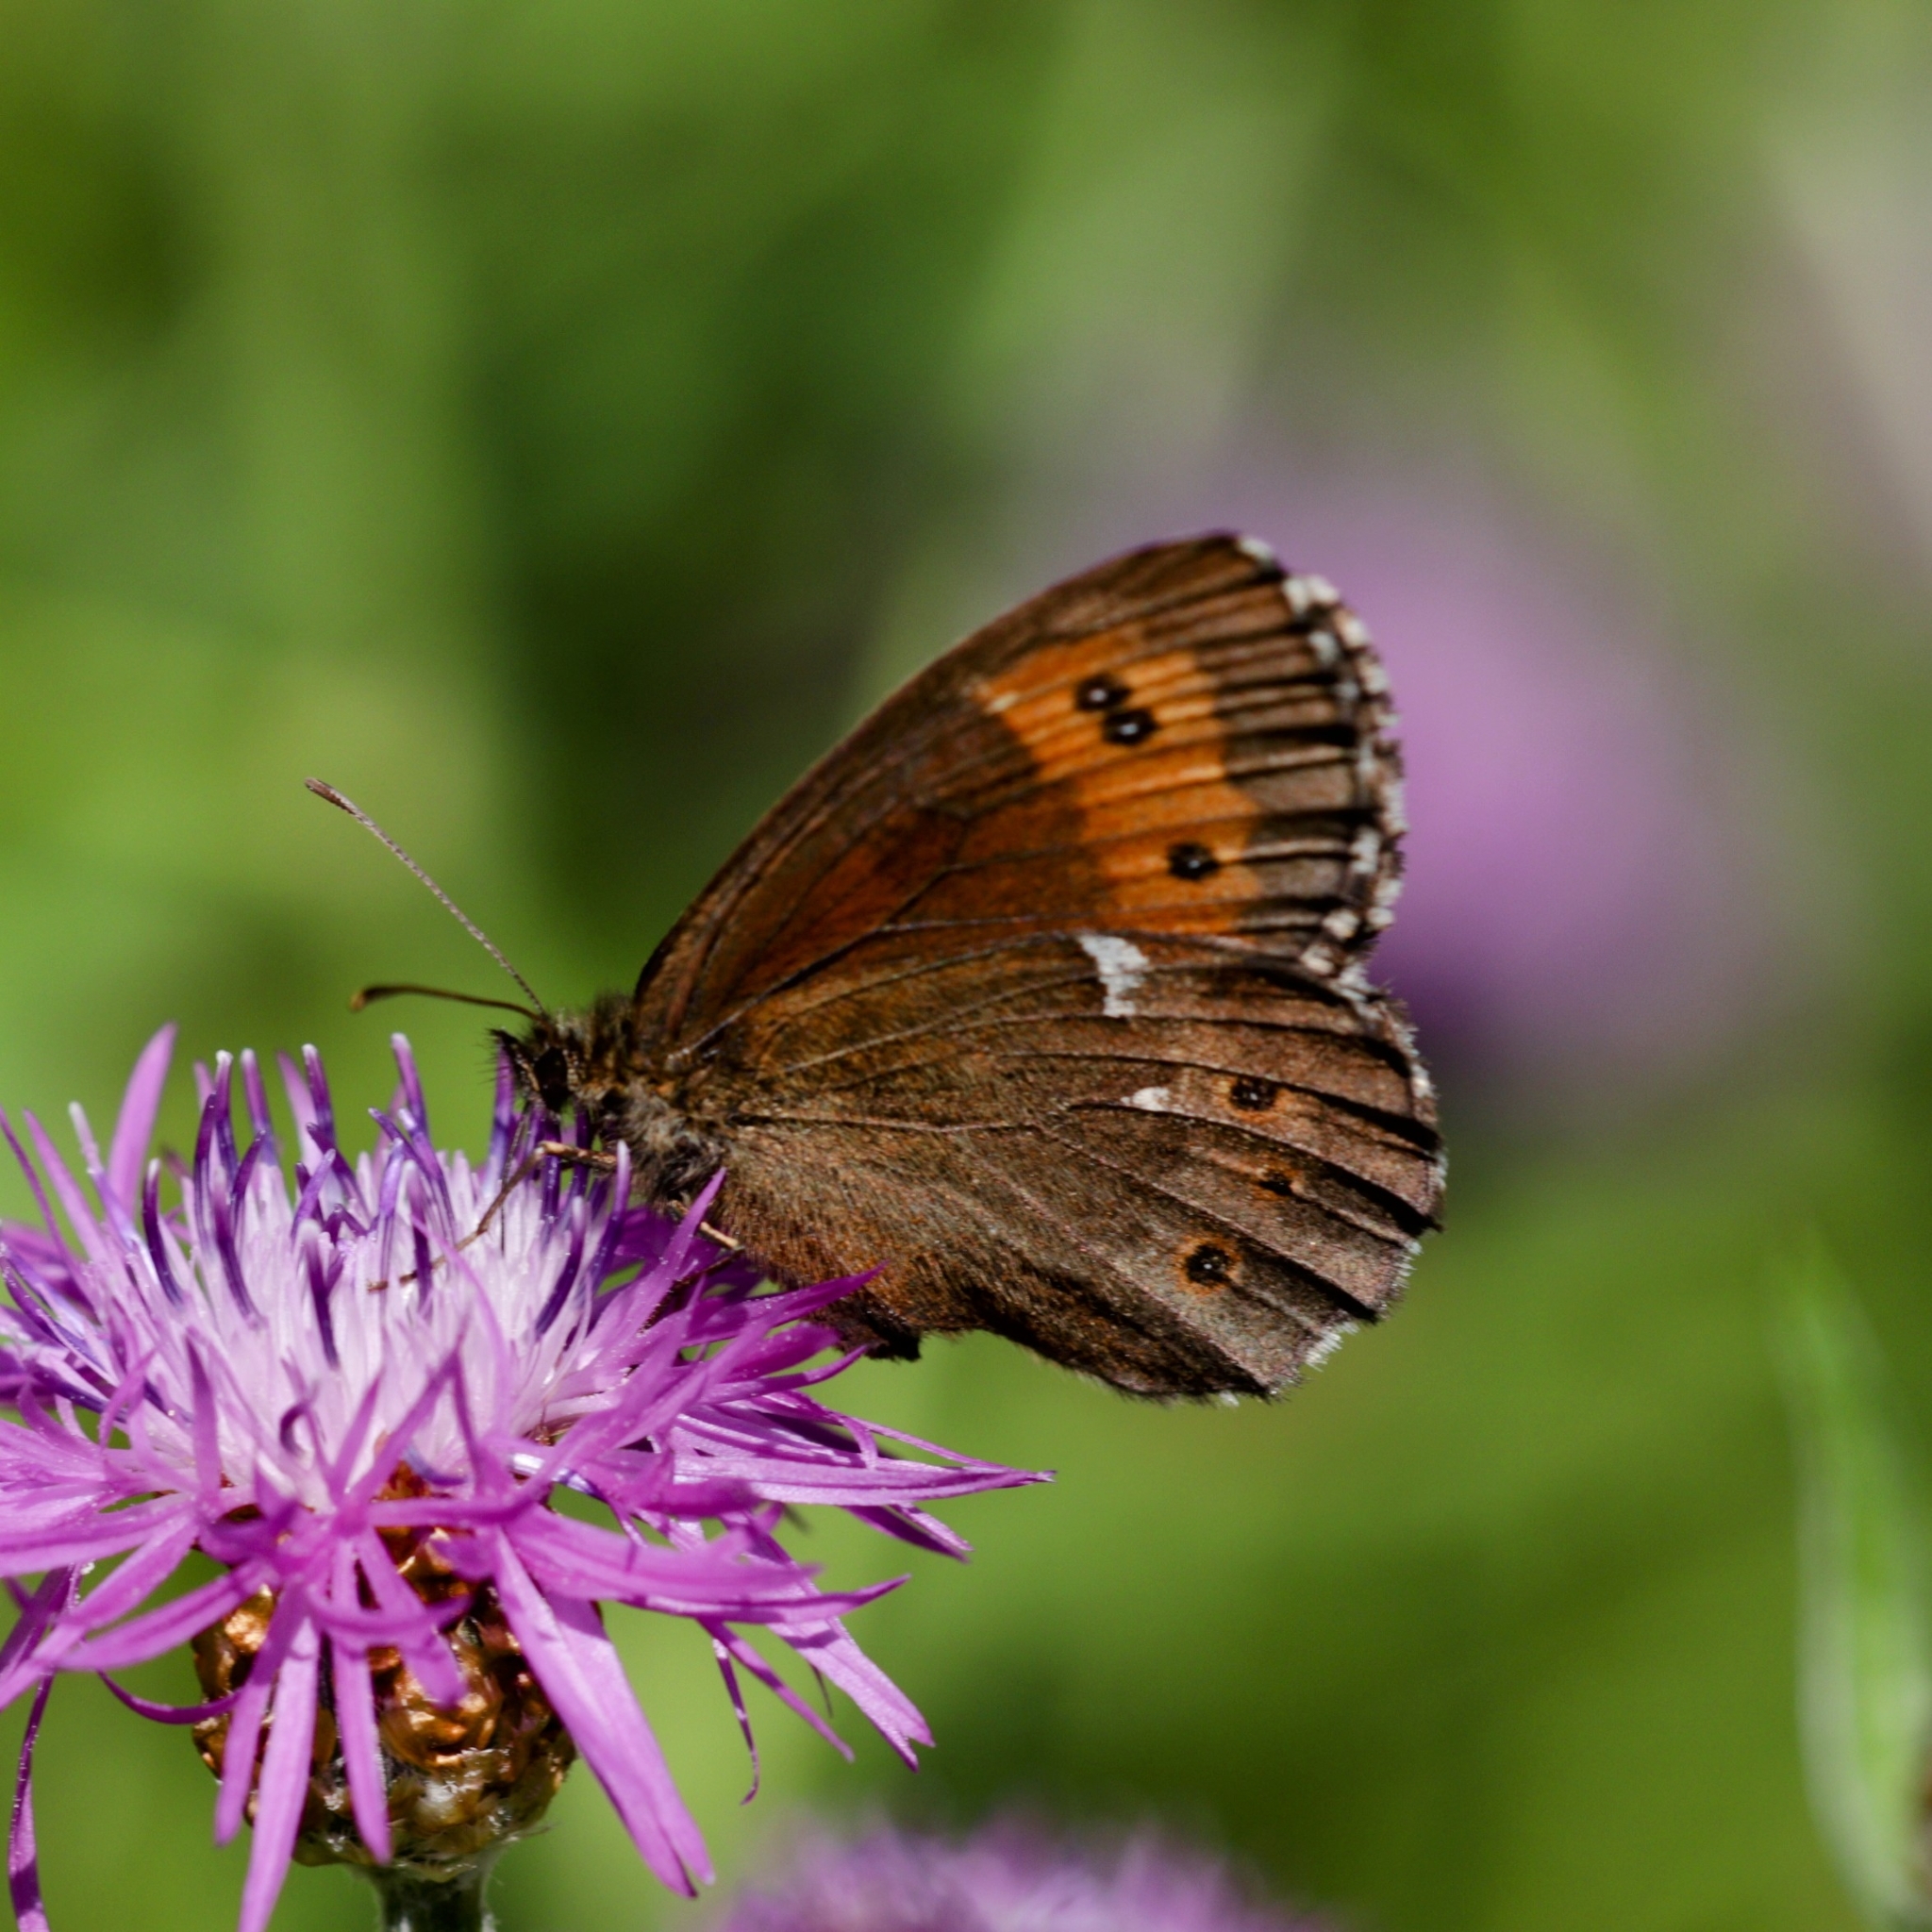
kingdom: Animalia
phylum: Arthropoda
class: Insecta
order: Lepidoptera
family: Nymphalidae
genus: Erebia
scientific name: Erebia ligea
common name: Arran brown
